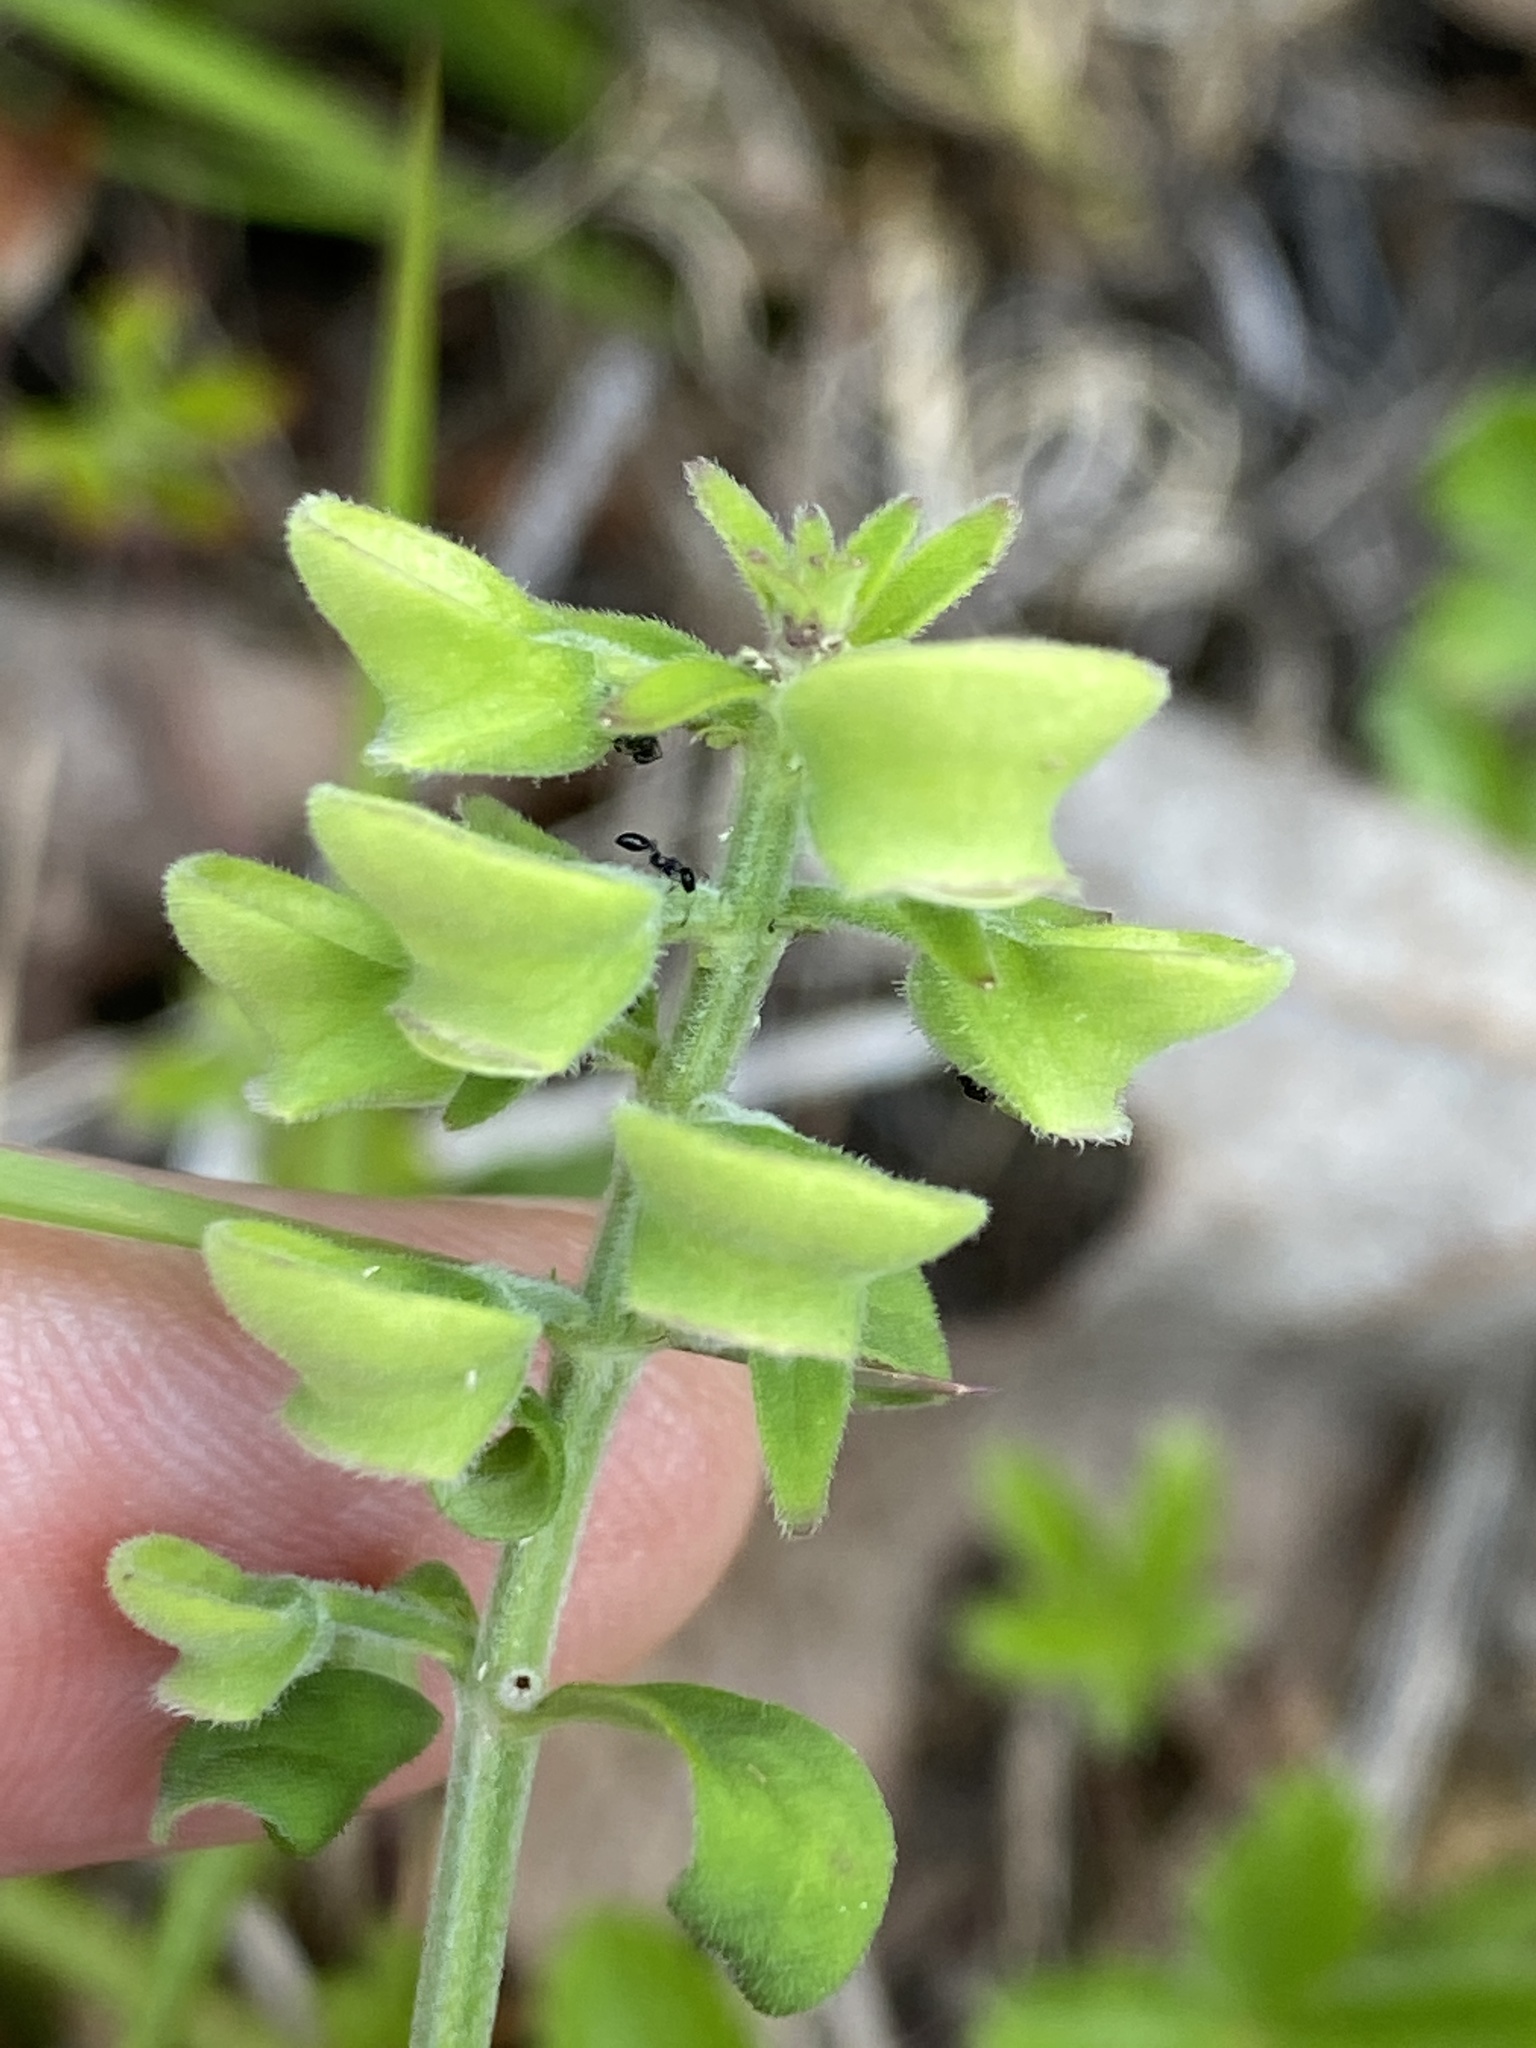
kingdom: Plantae
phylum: Tracheophyta
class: Magnoliopsida
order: Lamiales
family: Lamiaceae
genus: Scutellaria
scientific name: Scutellaria integrifolia
